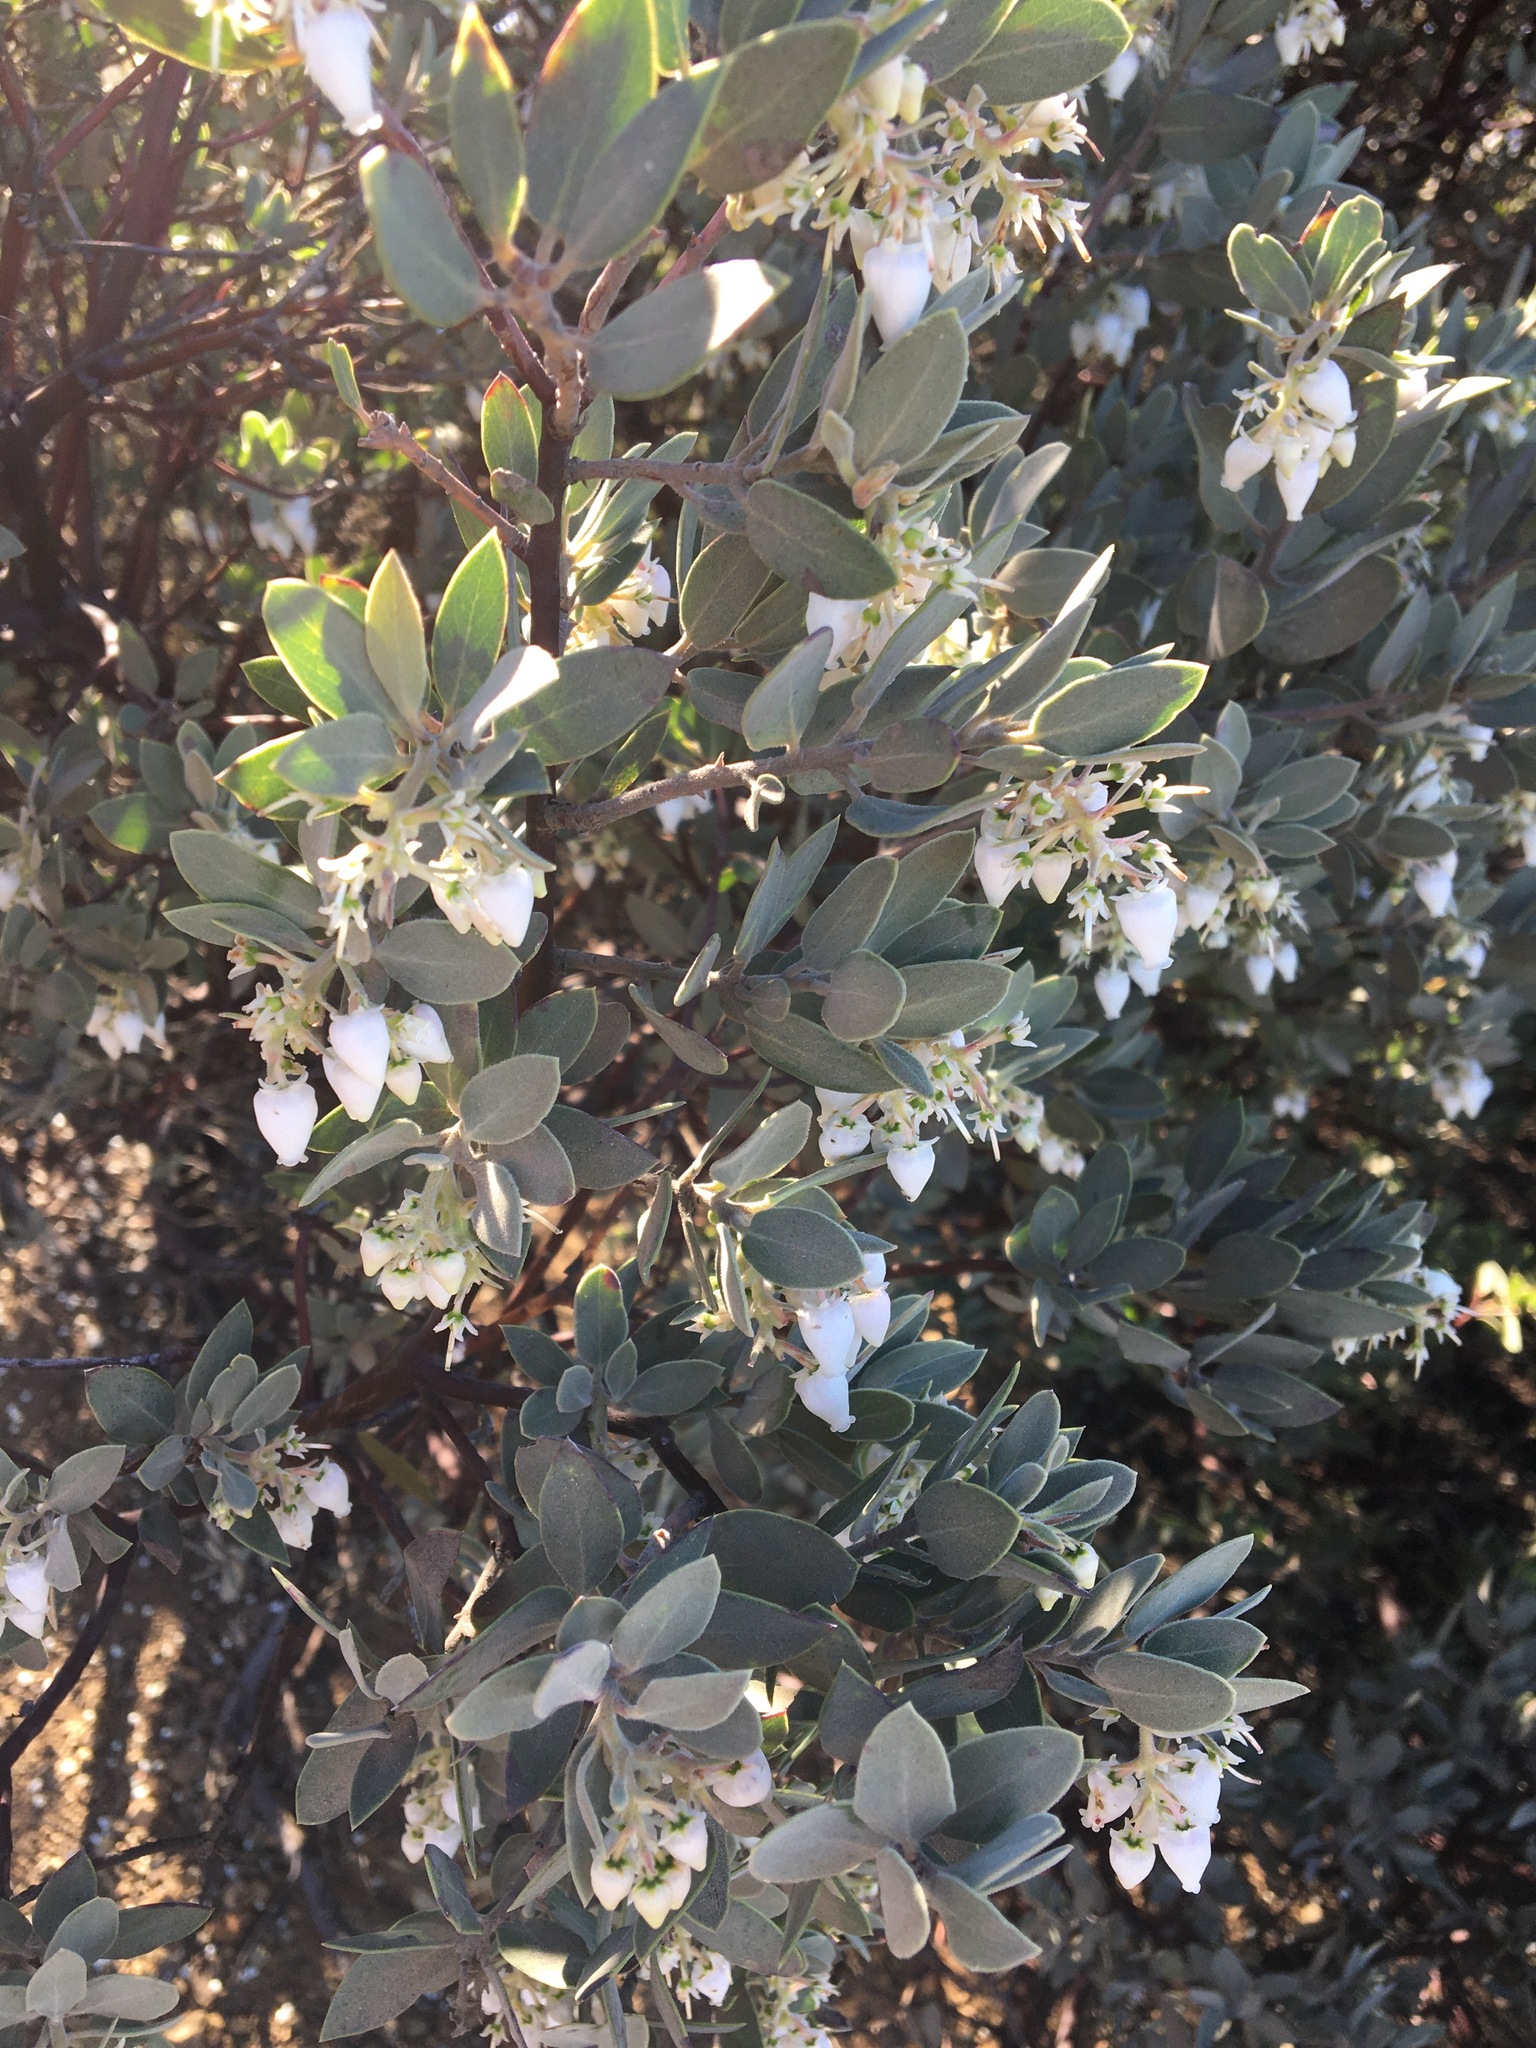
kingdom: Plantae
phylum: Tracheophyta
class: Magnoliopsida
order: Ericales
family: Ericaceae
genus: Arctostaphylos
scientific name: Arctostaphylos obispoensis
